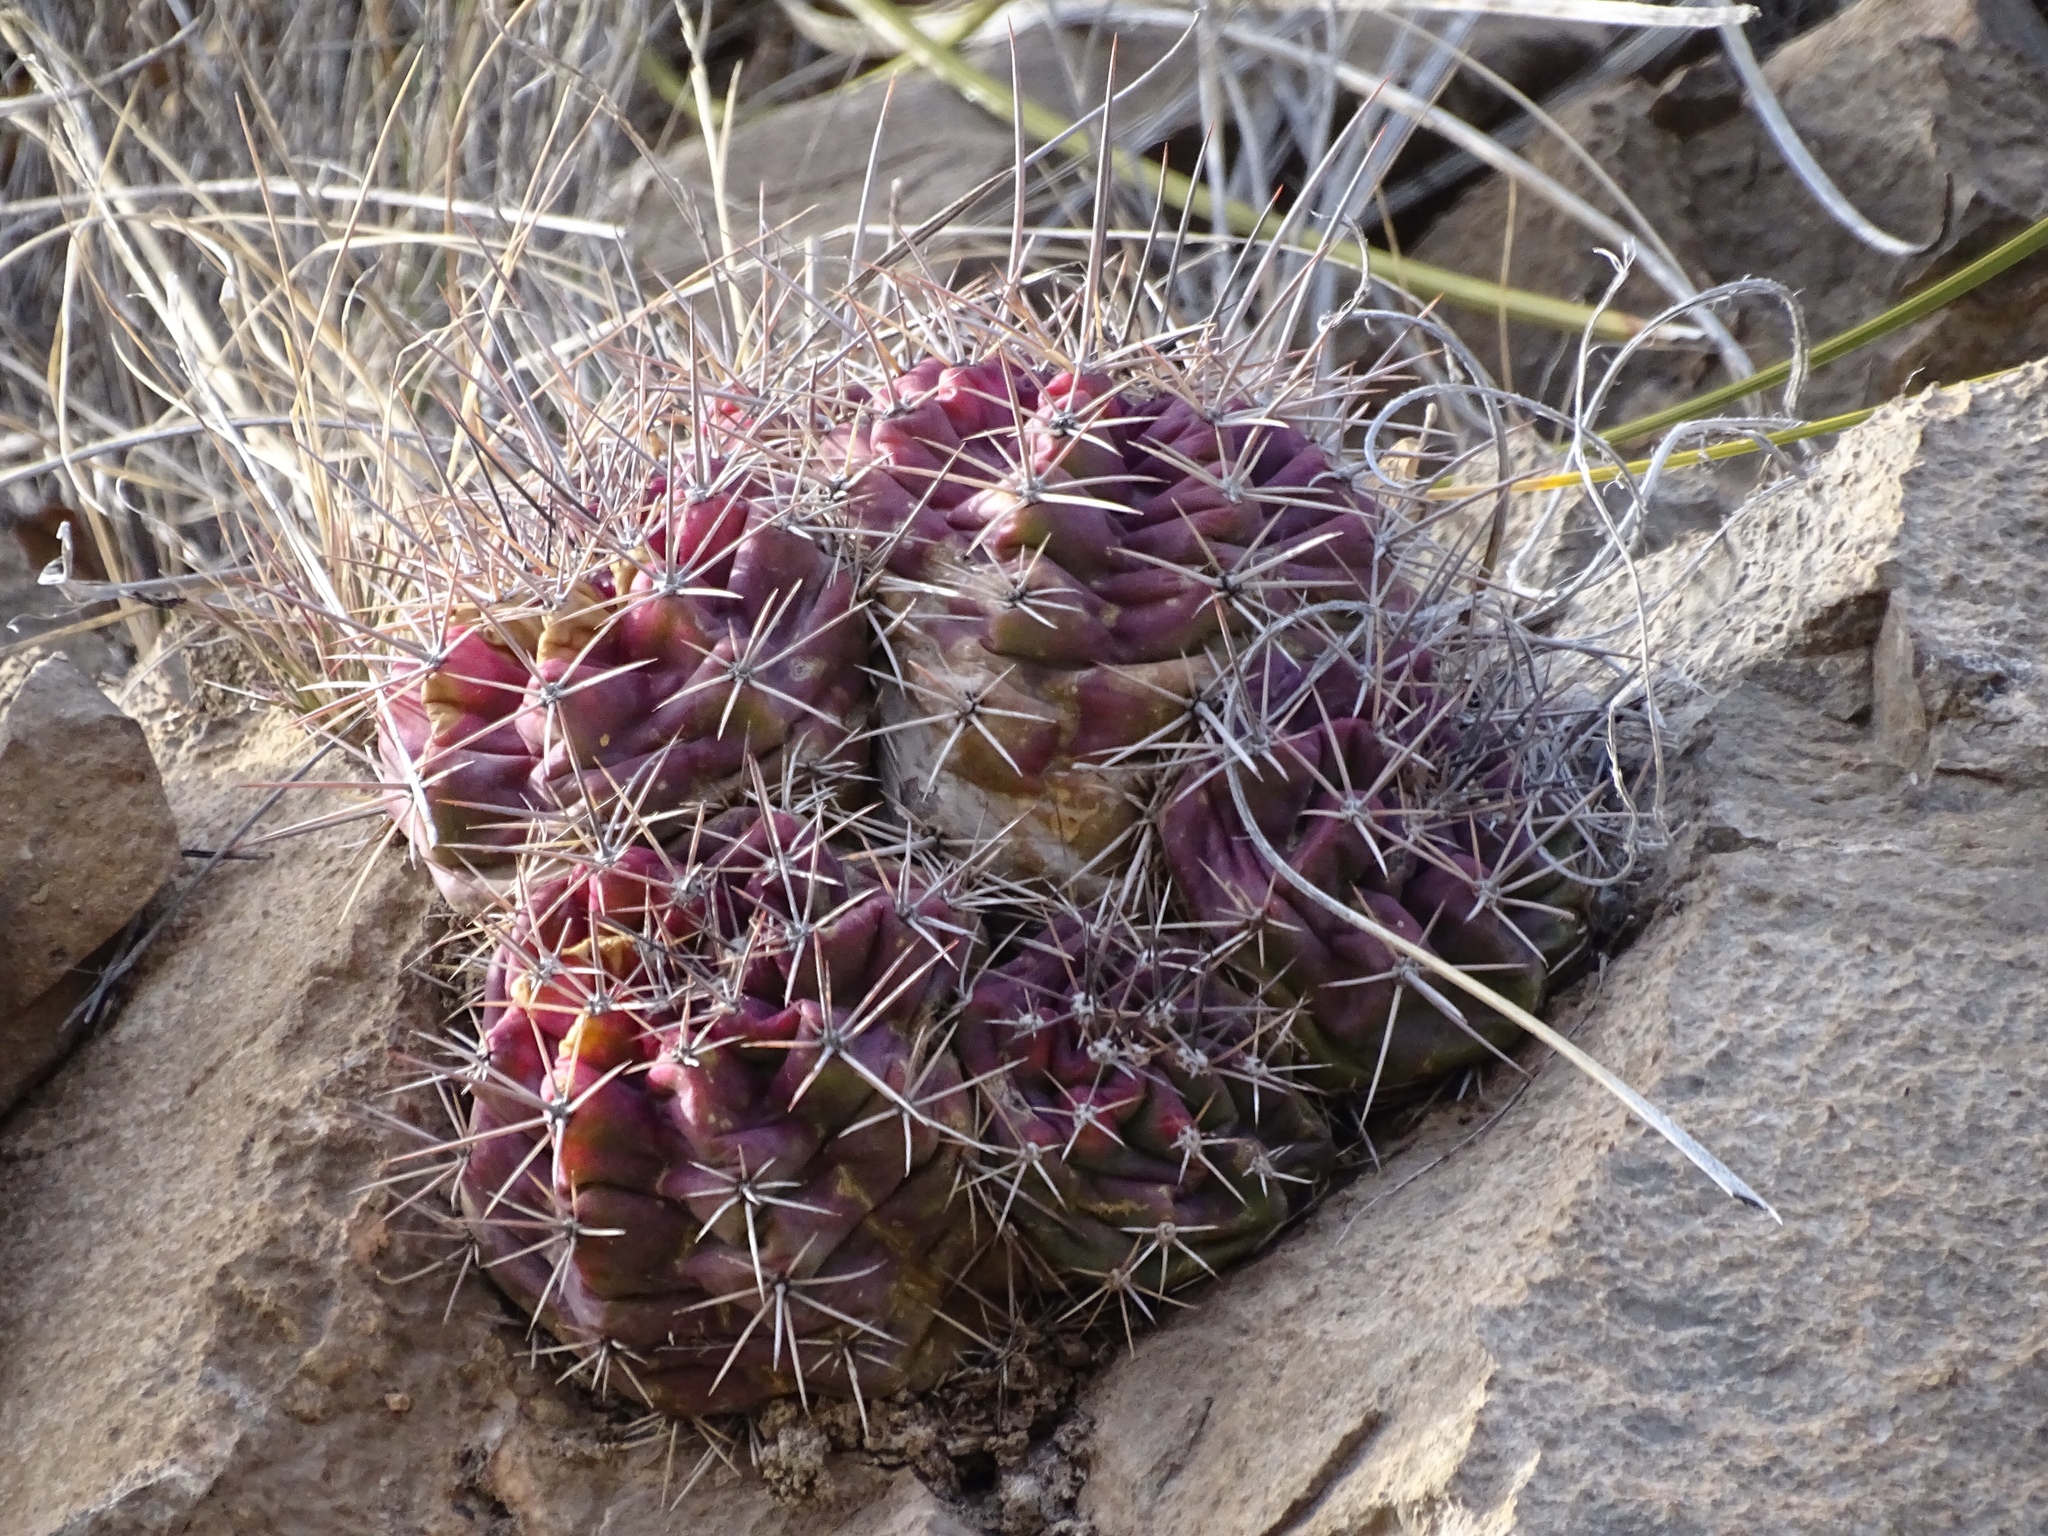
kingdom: Plantae
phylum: Tracheophyta
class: Magnoliopsida
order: Caryophyllales
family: Cactaceae
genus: Echinocereus
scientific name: Echinocereus coccineus
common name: Scarlet hedgehog cactus
